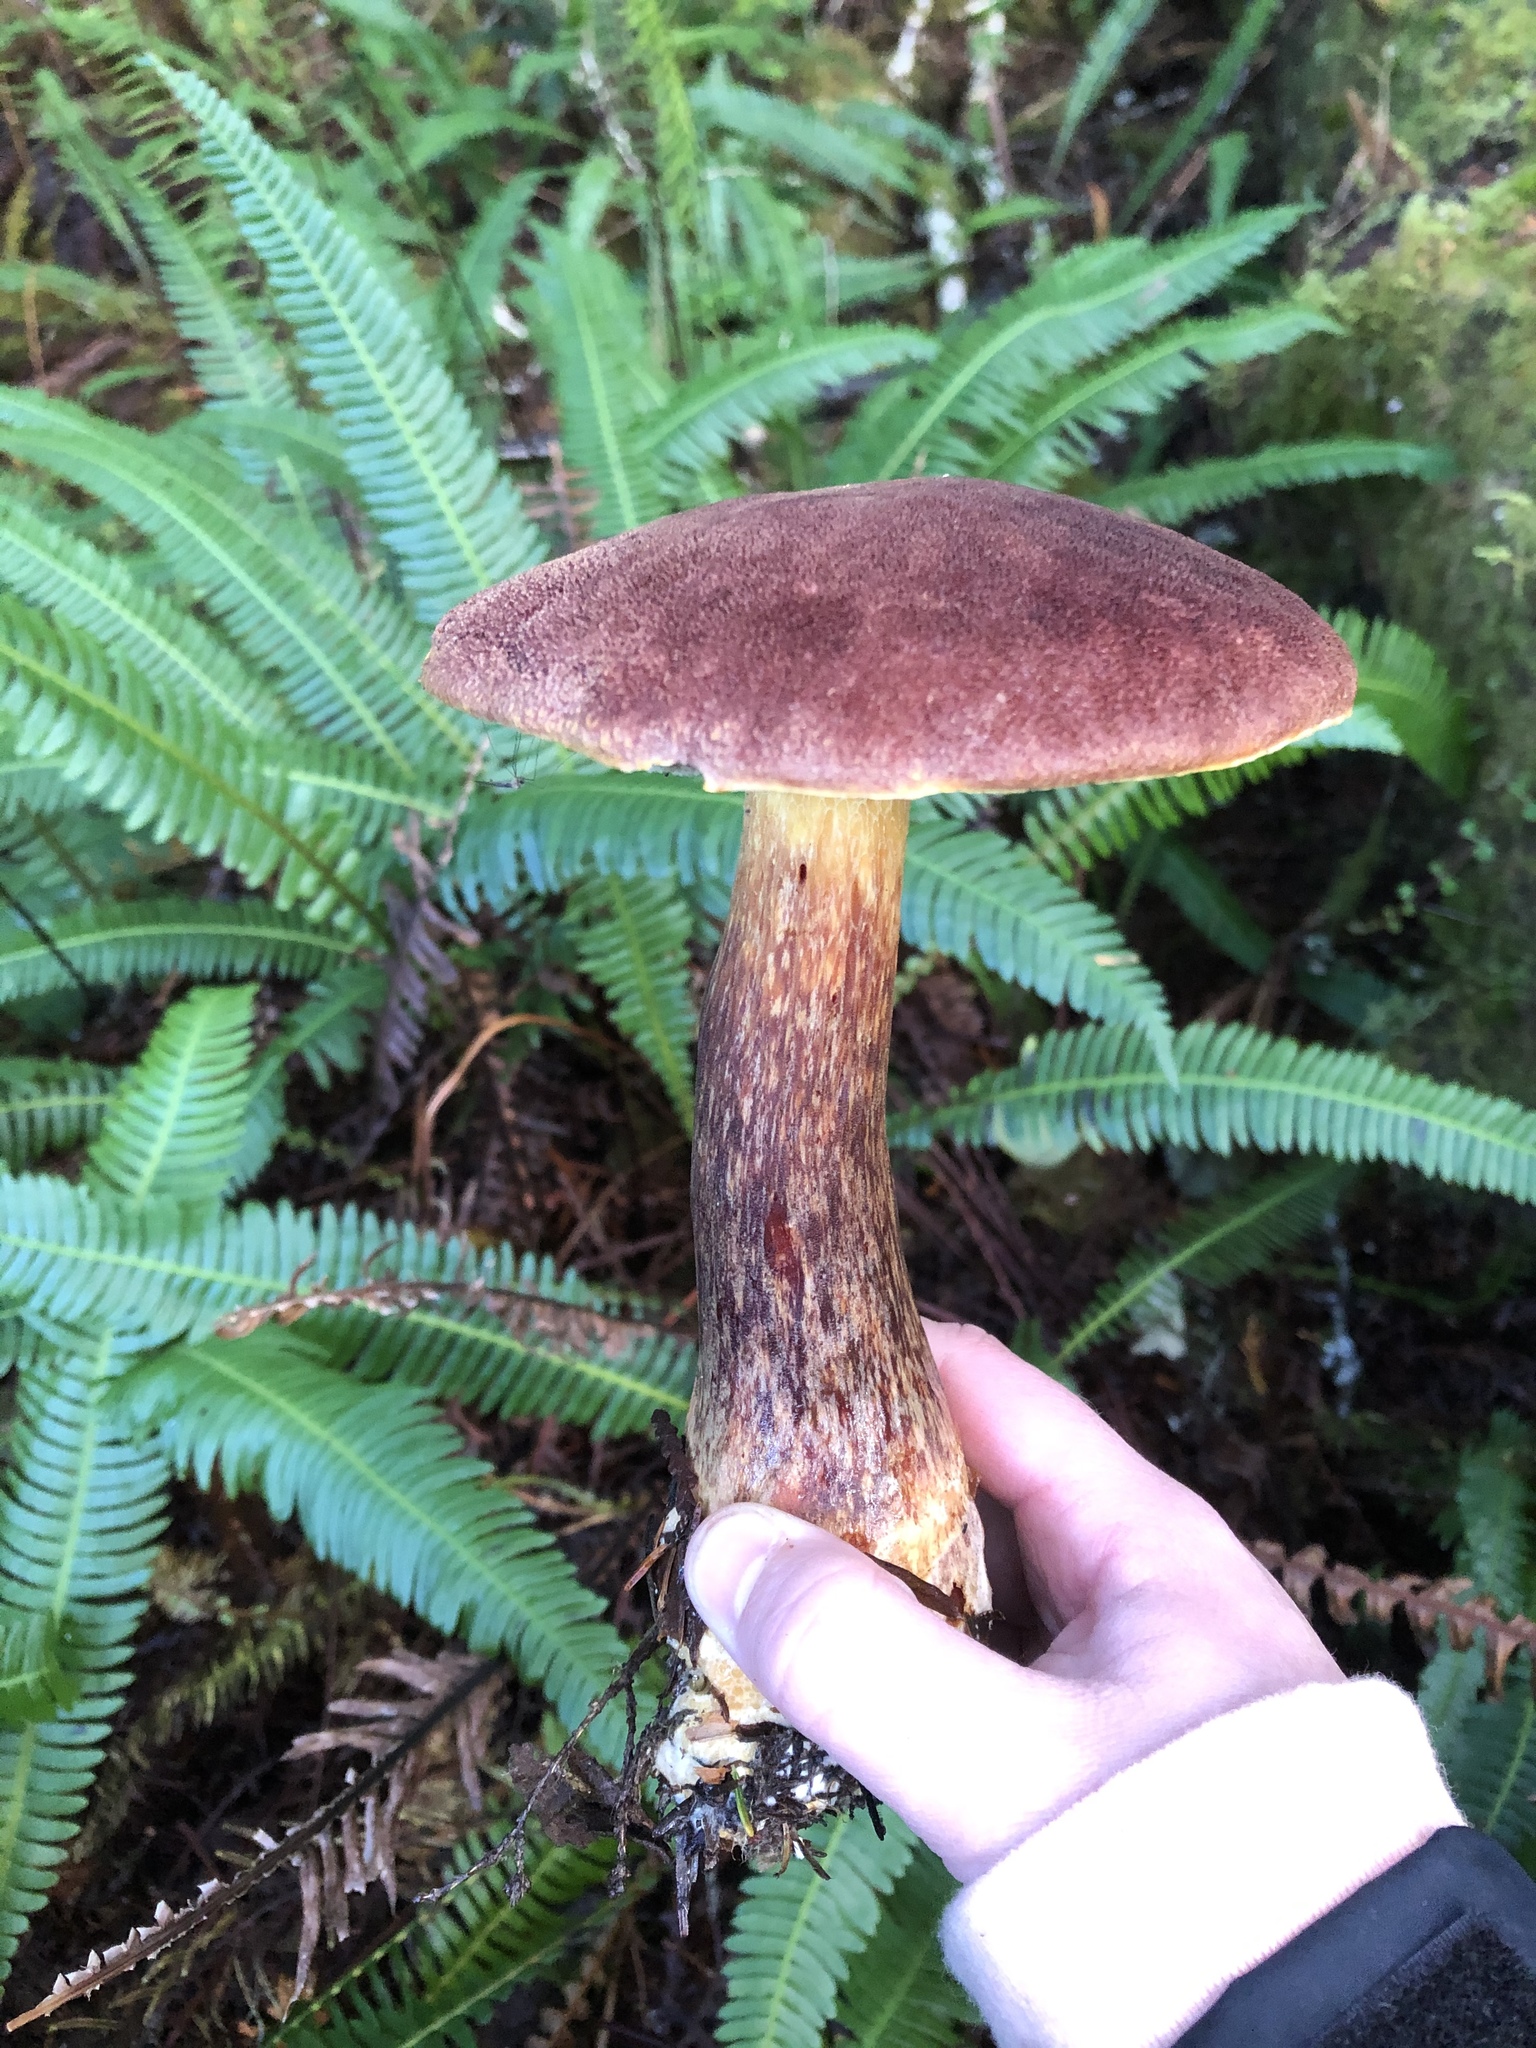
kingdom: Fungi
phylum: Basidiomycota
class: Agaricomycetes
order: Boletales
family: Boletaceae
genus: Aureoboletus
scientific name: Aureoboletus mirabilis
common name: Admirable bolete
